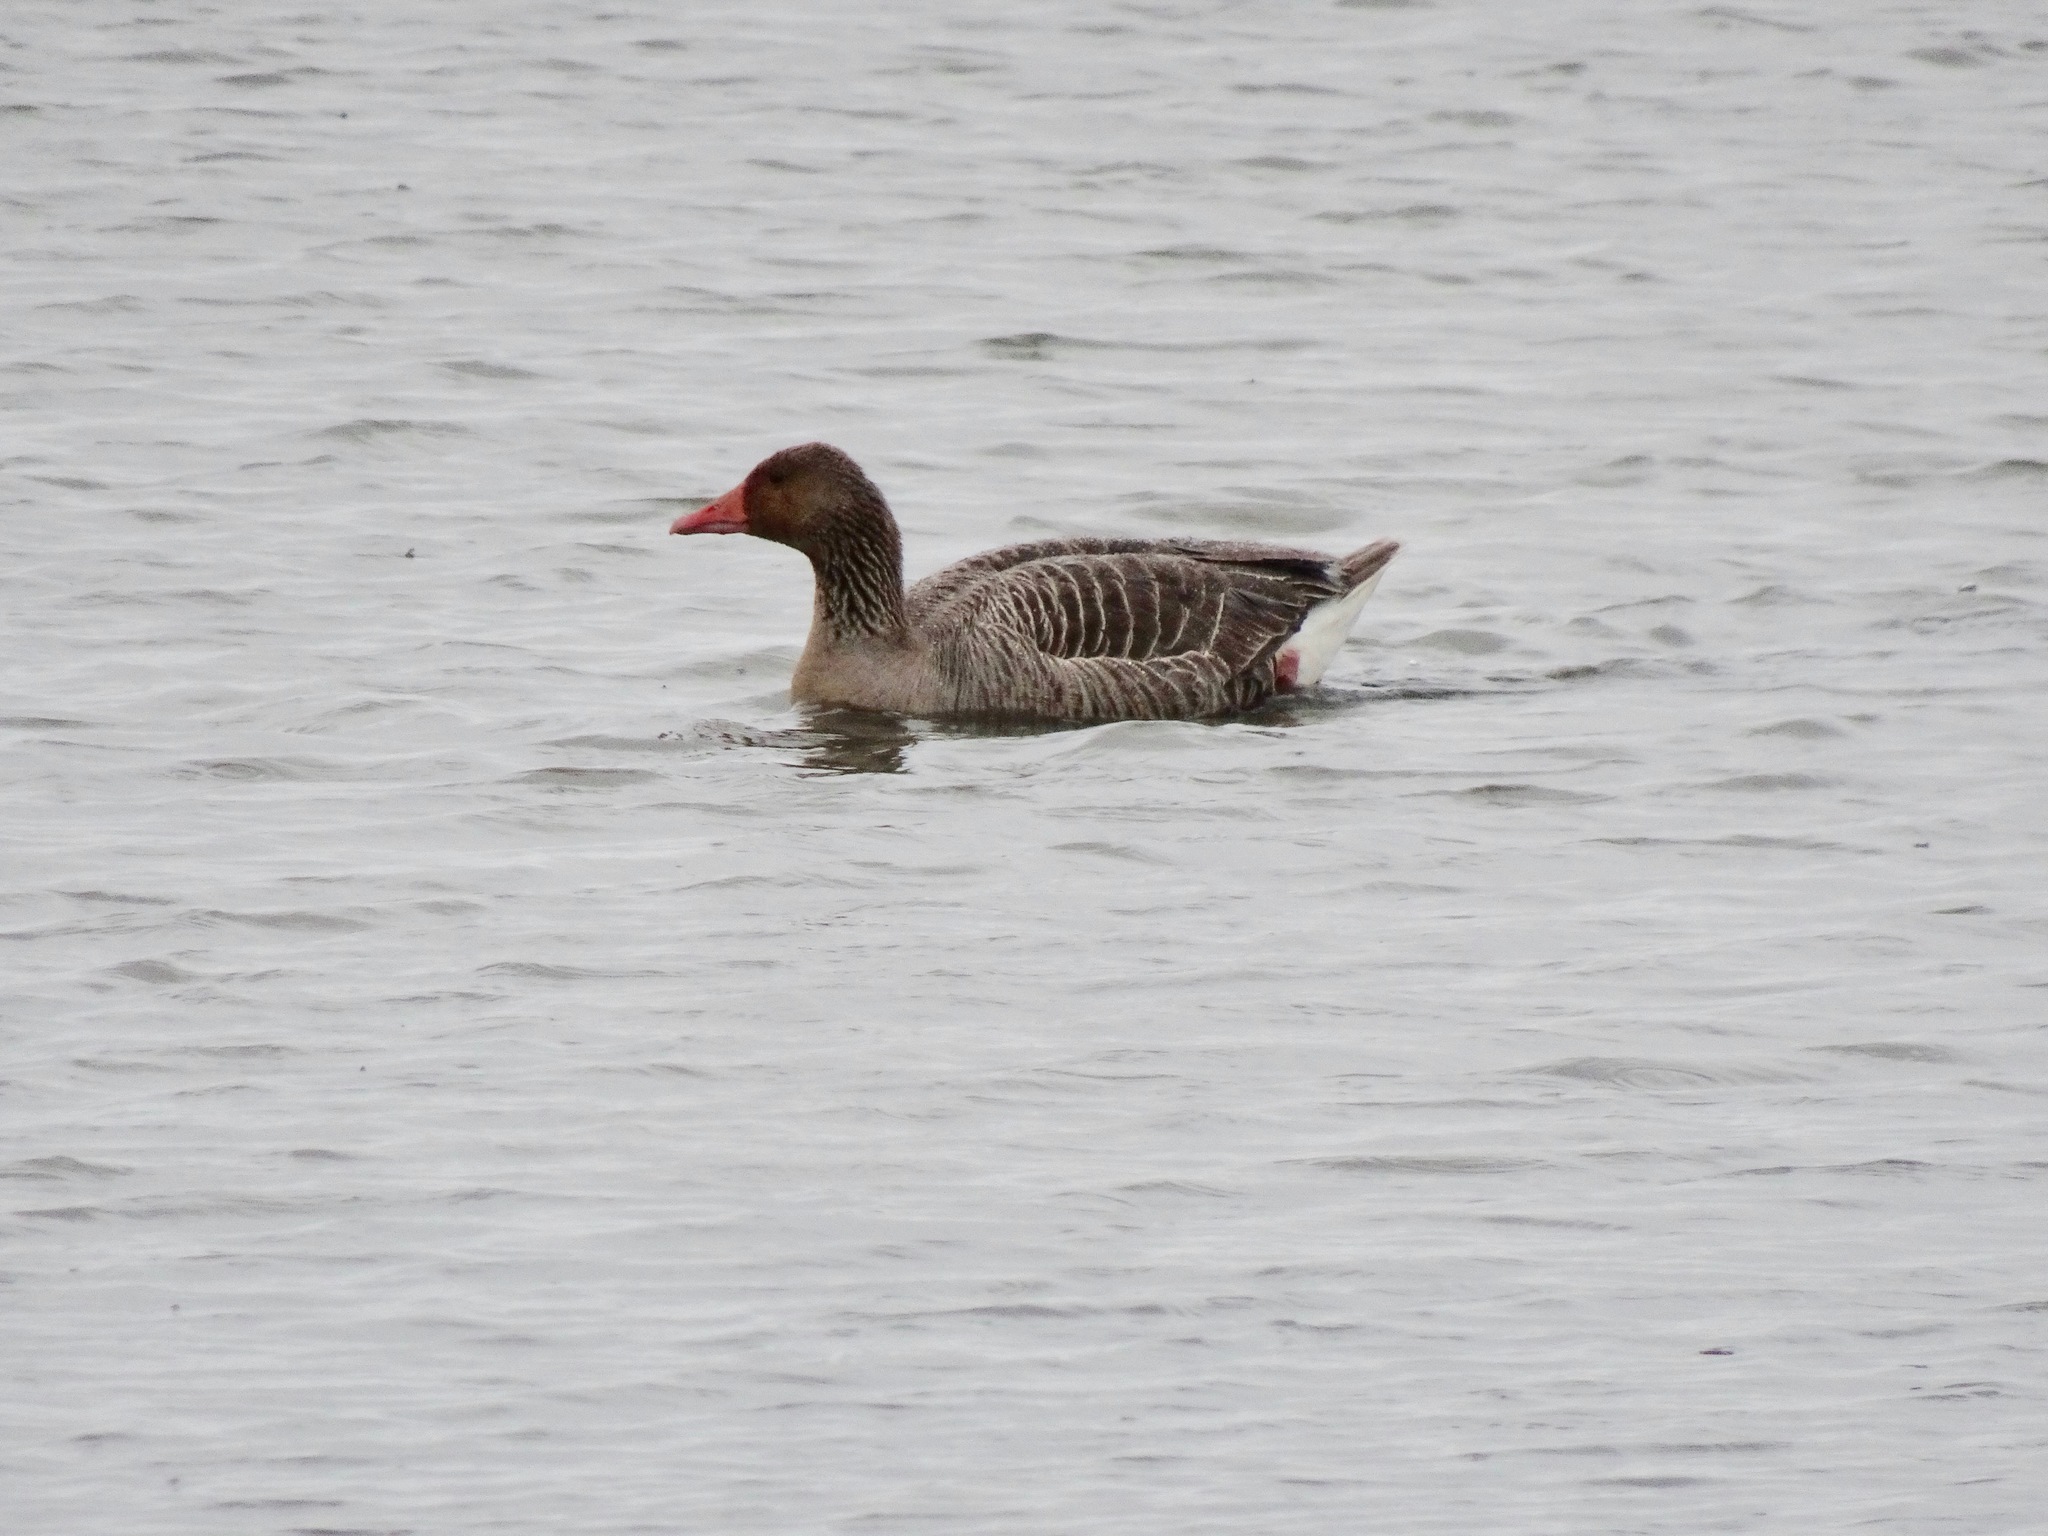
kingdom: Animalia
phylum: Chordata
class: Aves
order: Anseriformes
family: Anatidae
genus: Anser
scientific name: Anser anser
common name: Greylag goose
